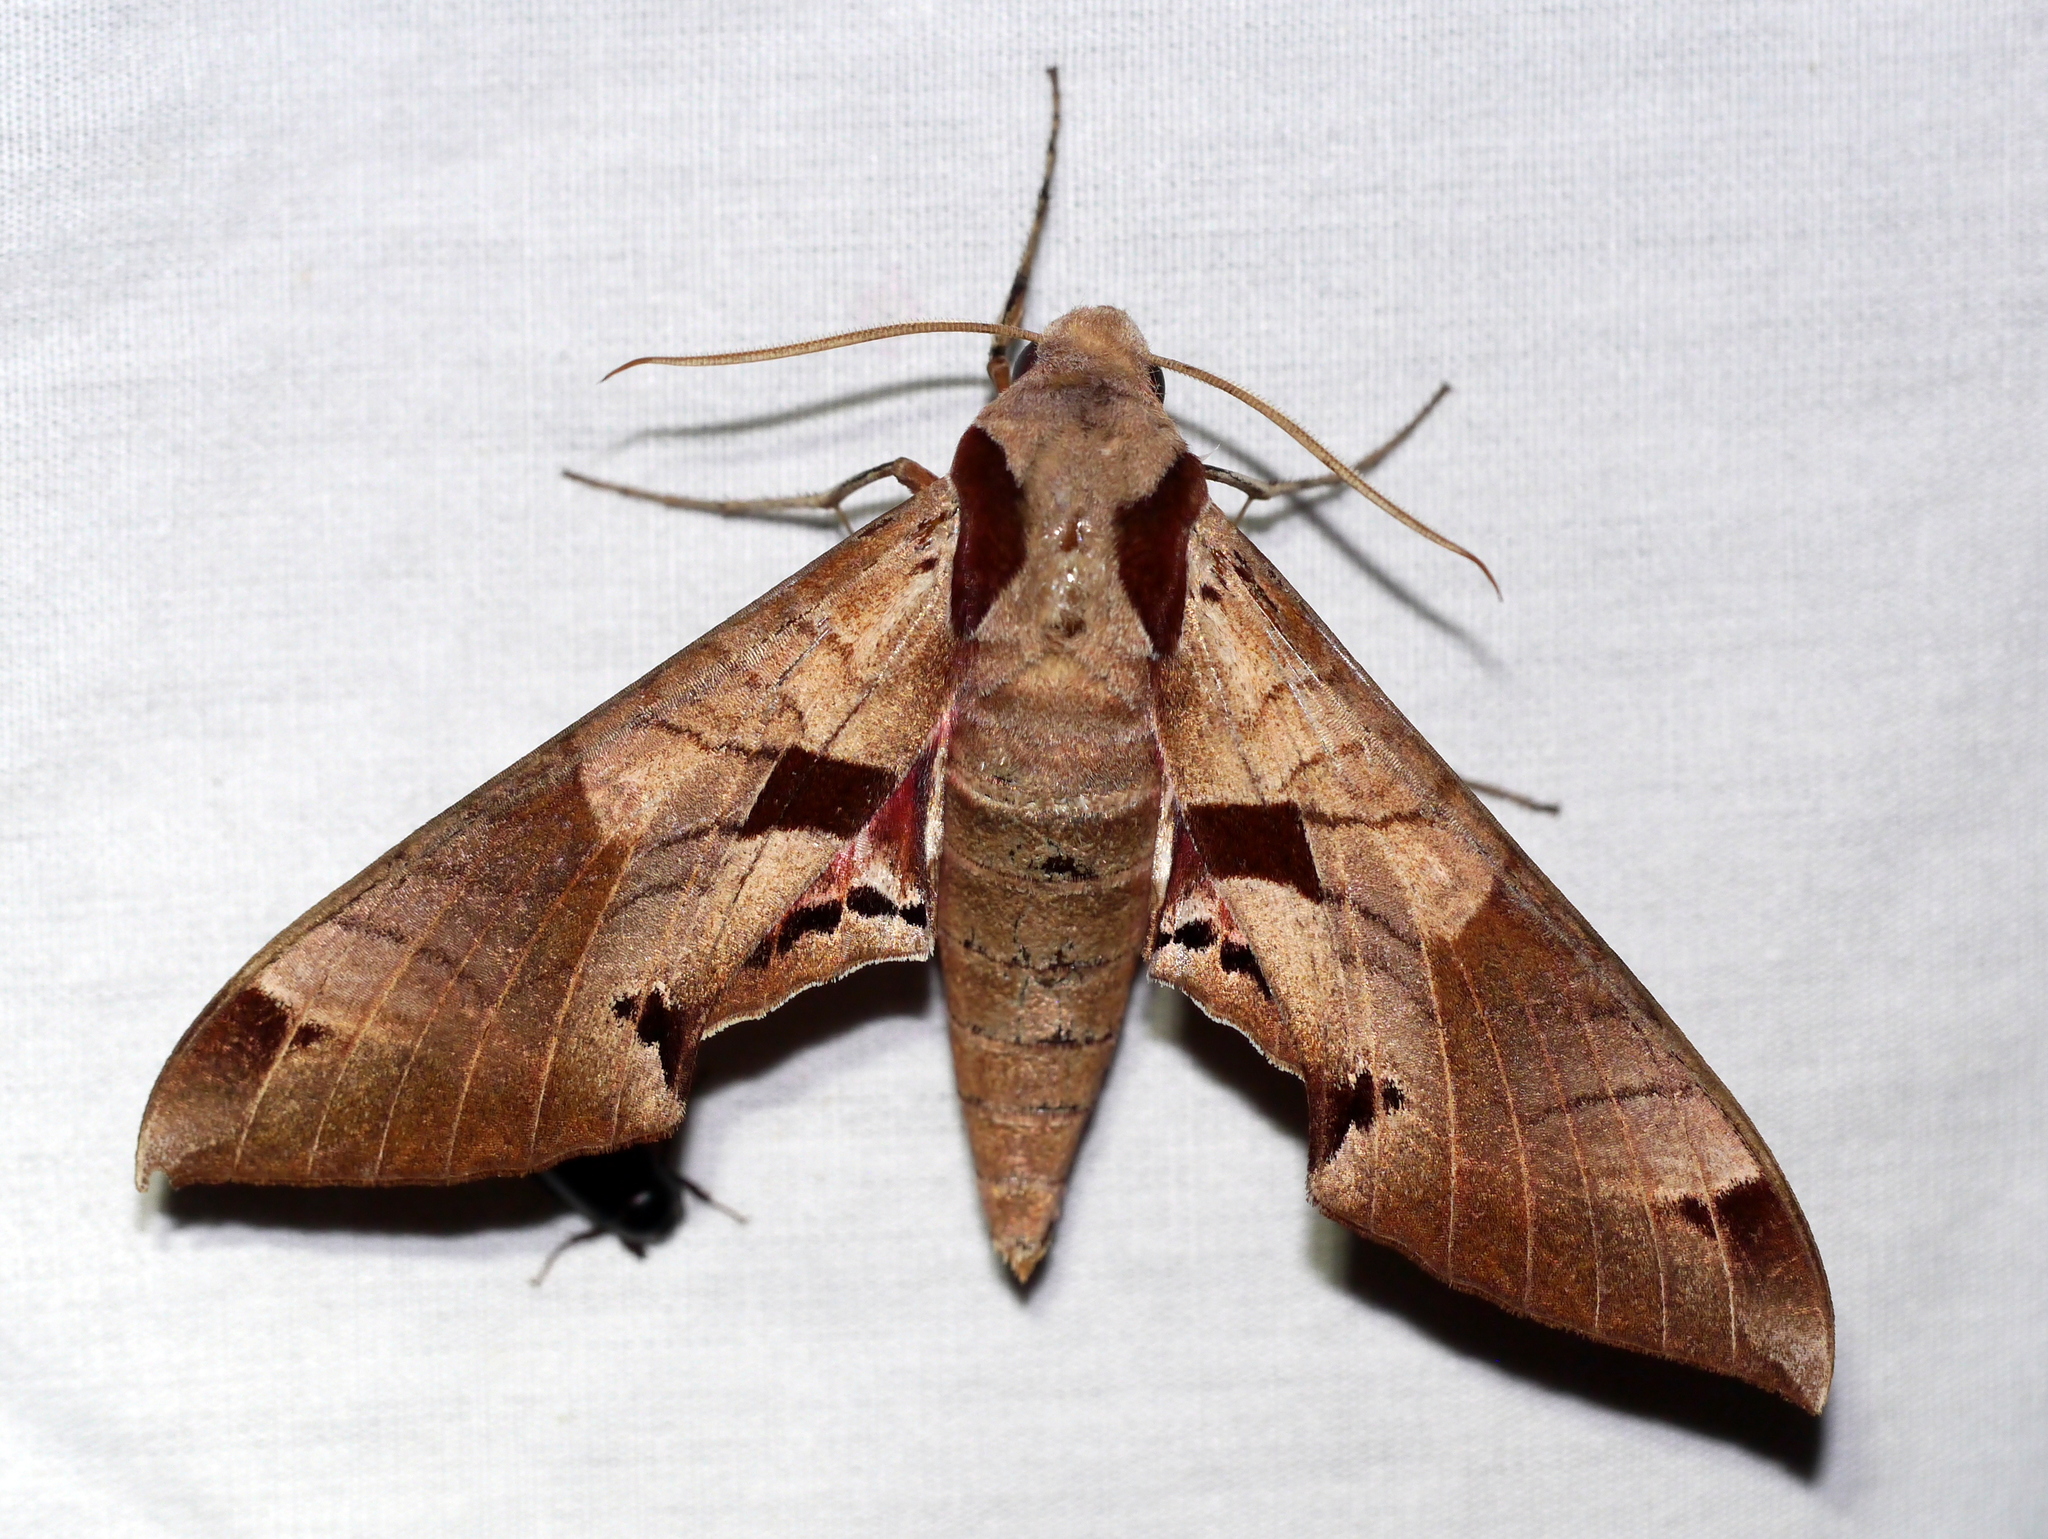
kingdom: Animalia
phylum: Arthropoda
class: Insecta
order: Lepidoptera
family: Sphingidae
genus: Eumorpha
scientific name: Eumorpha achemon
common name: Achemon sphinx
